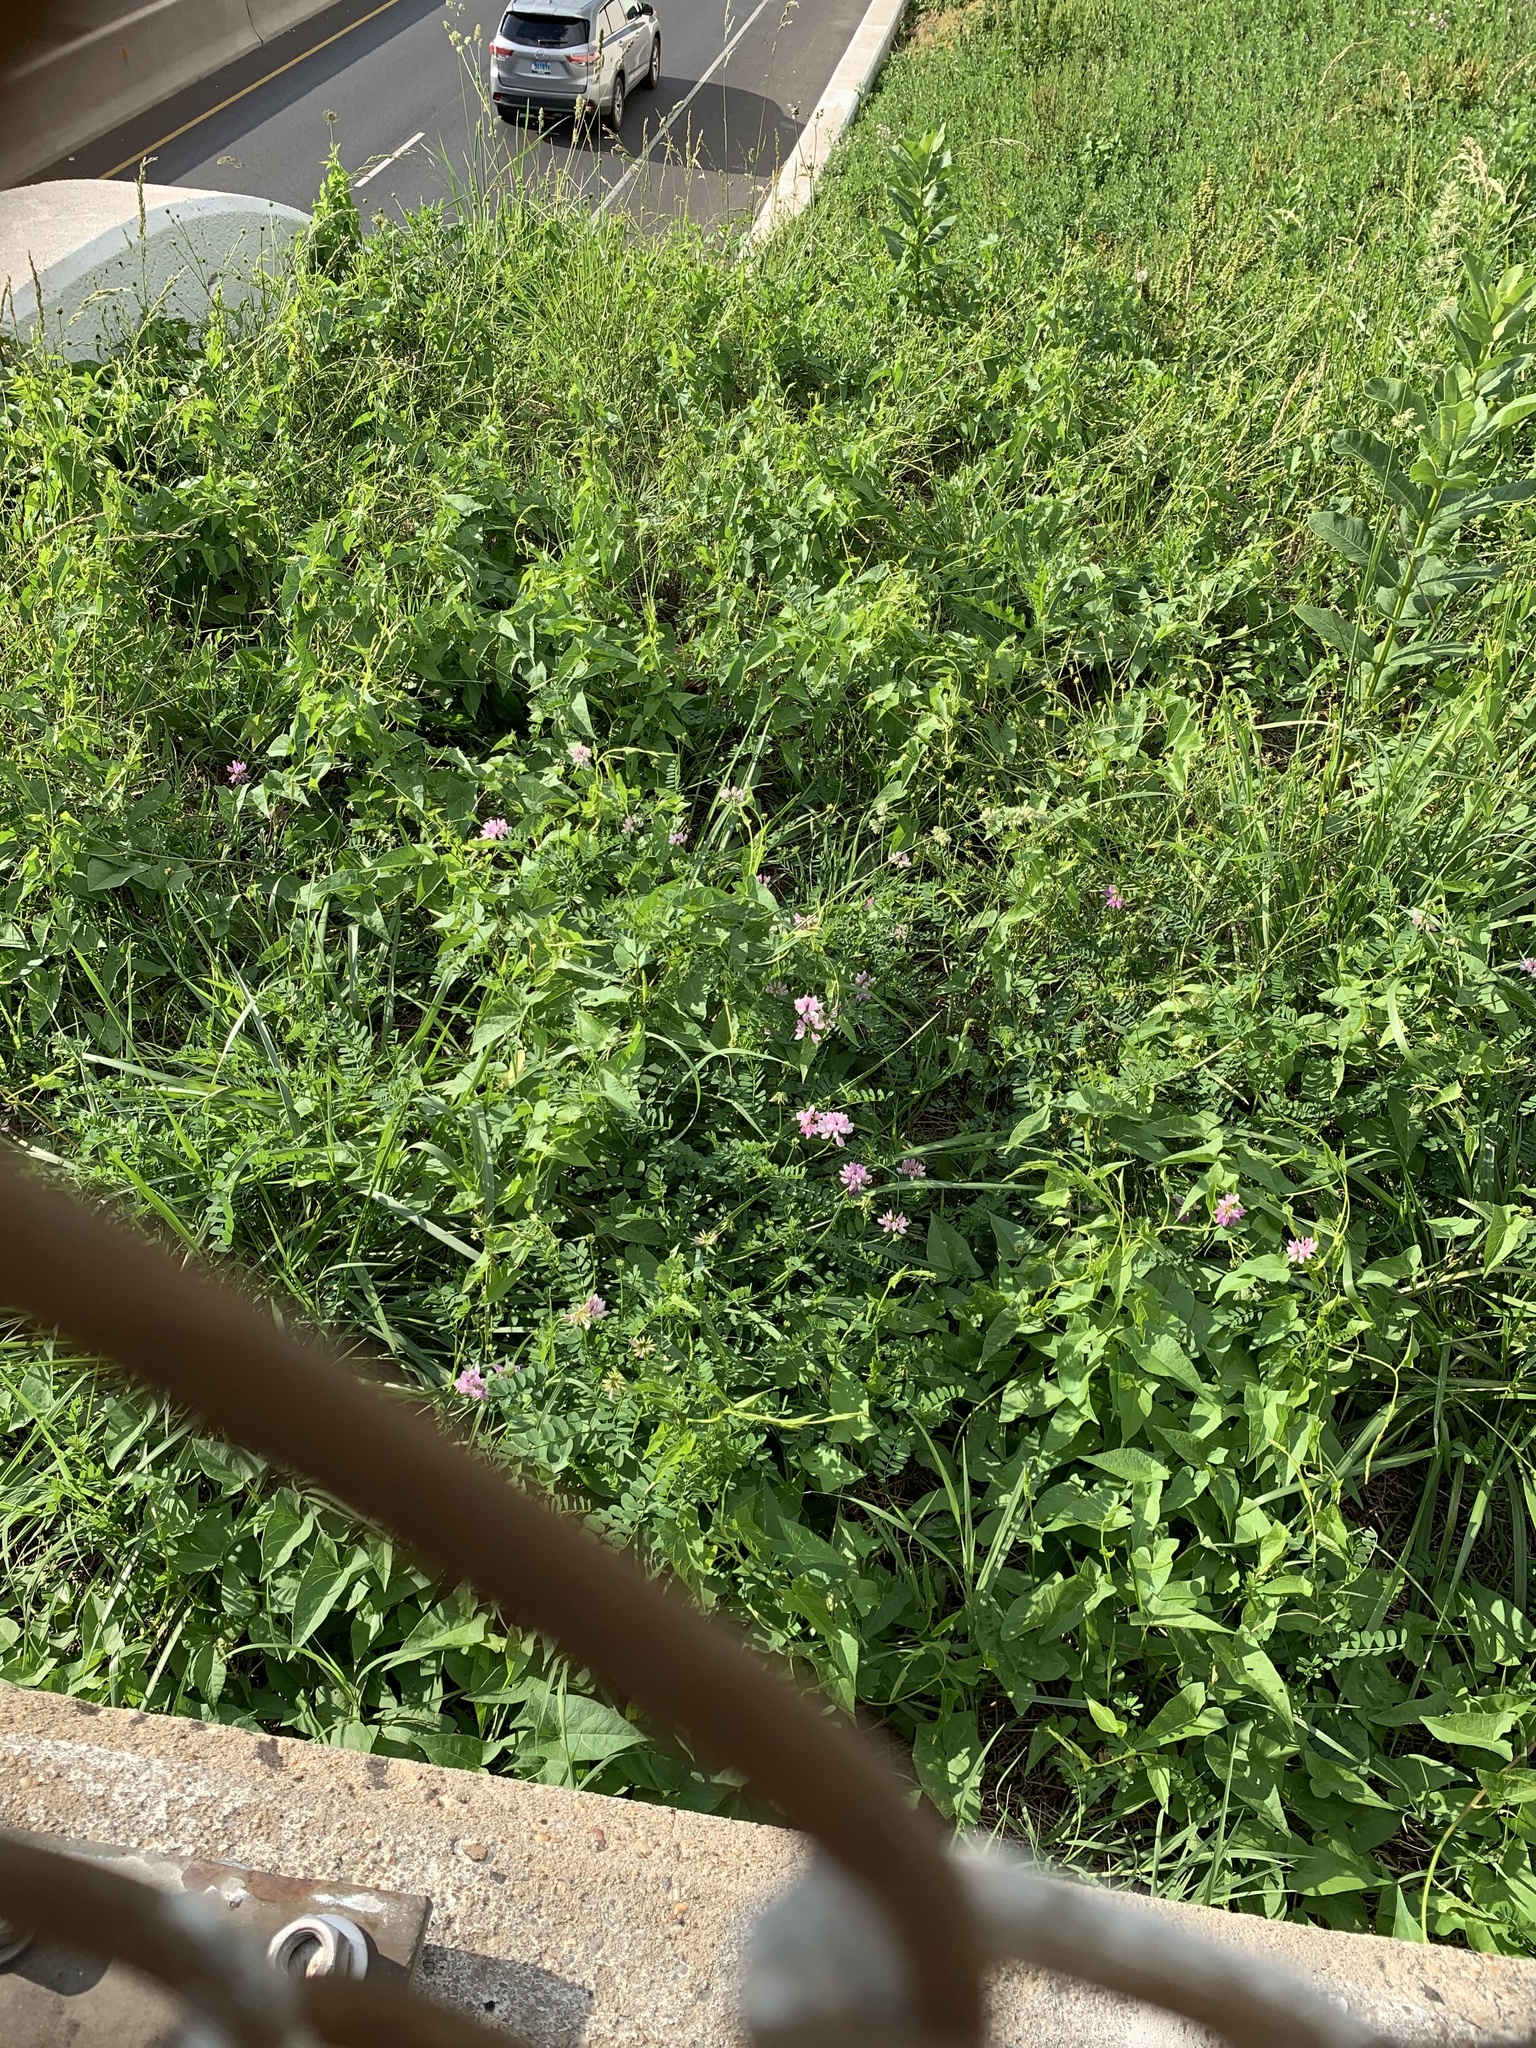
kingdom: Plantae
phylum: Tracheophyta
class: Magnoliopsida
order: Fabales
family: Fabaceae
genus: Coronilla
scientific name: Coronilla varia
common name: Crownvetch
